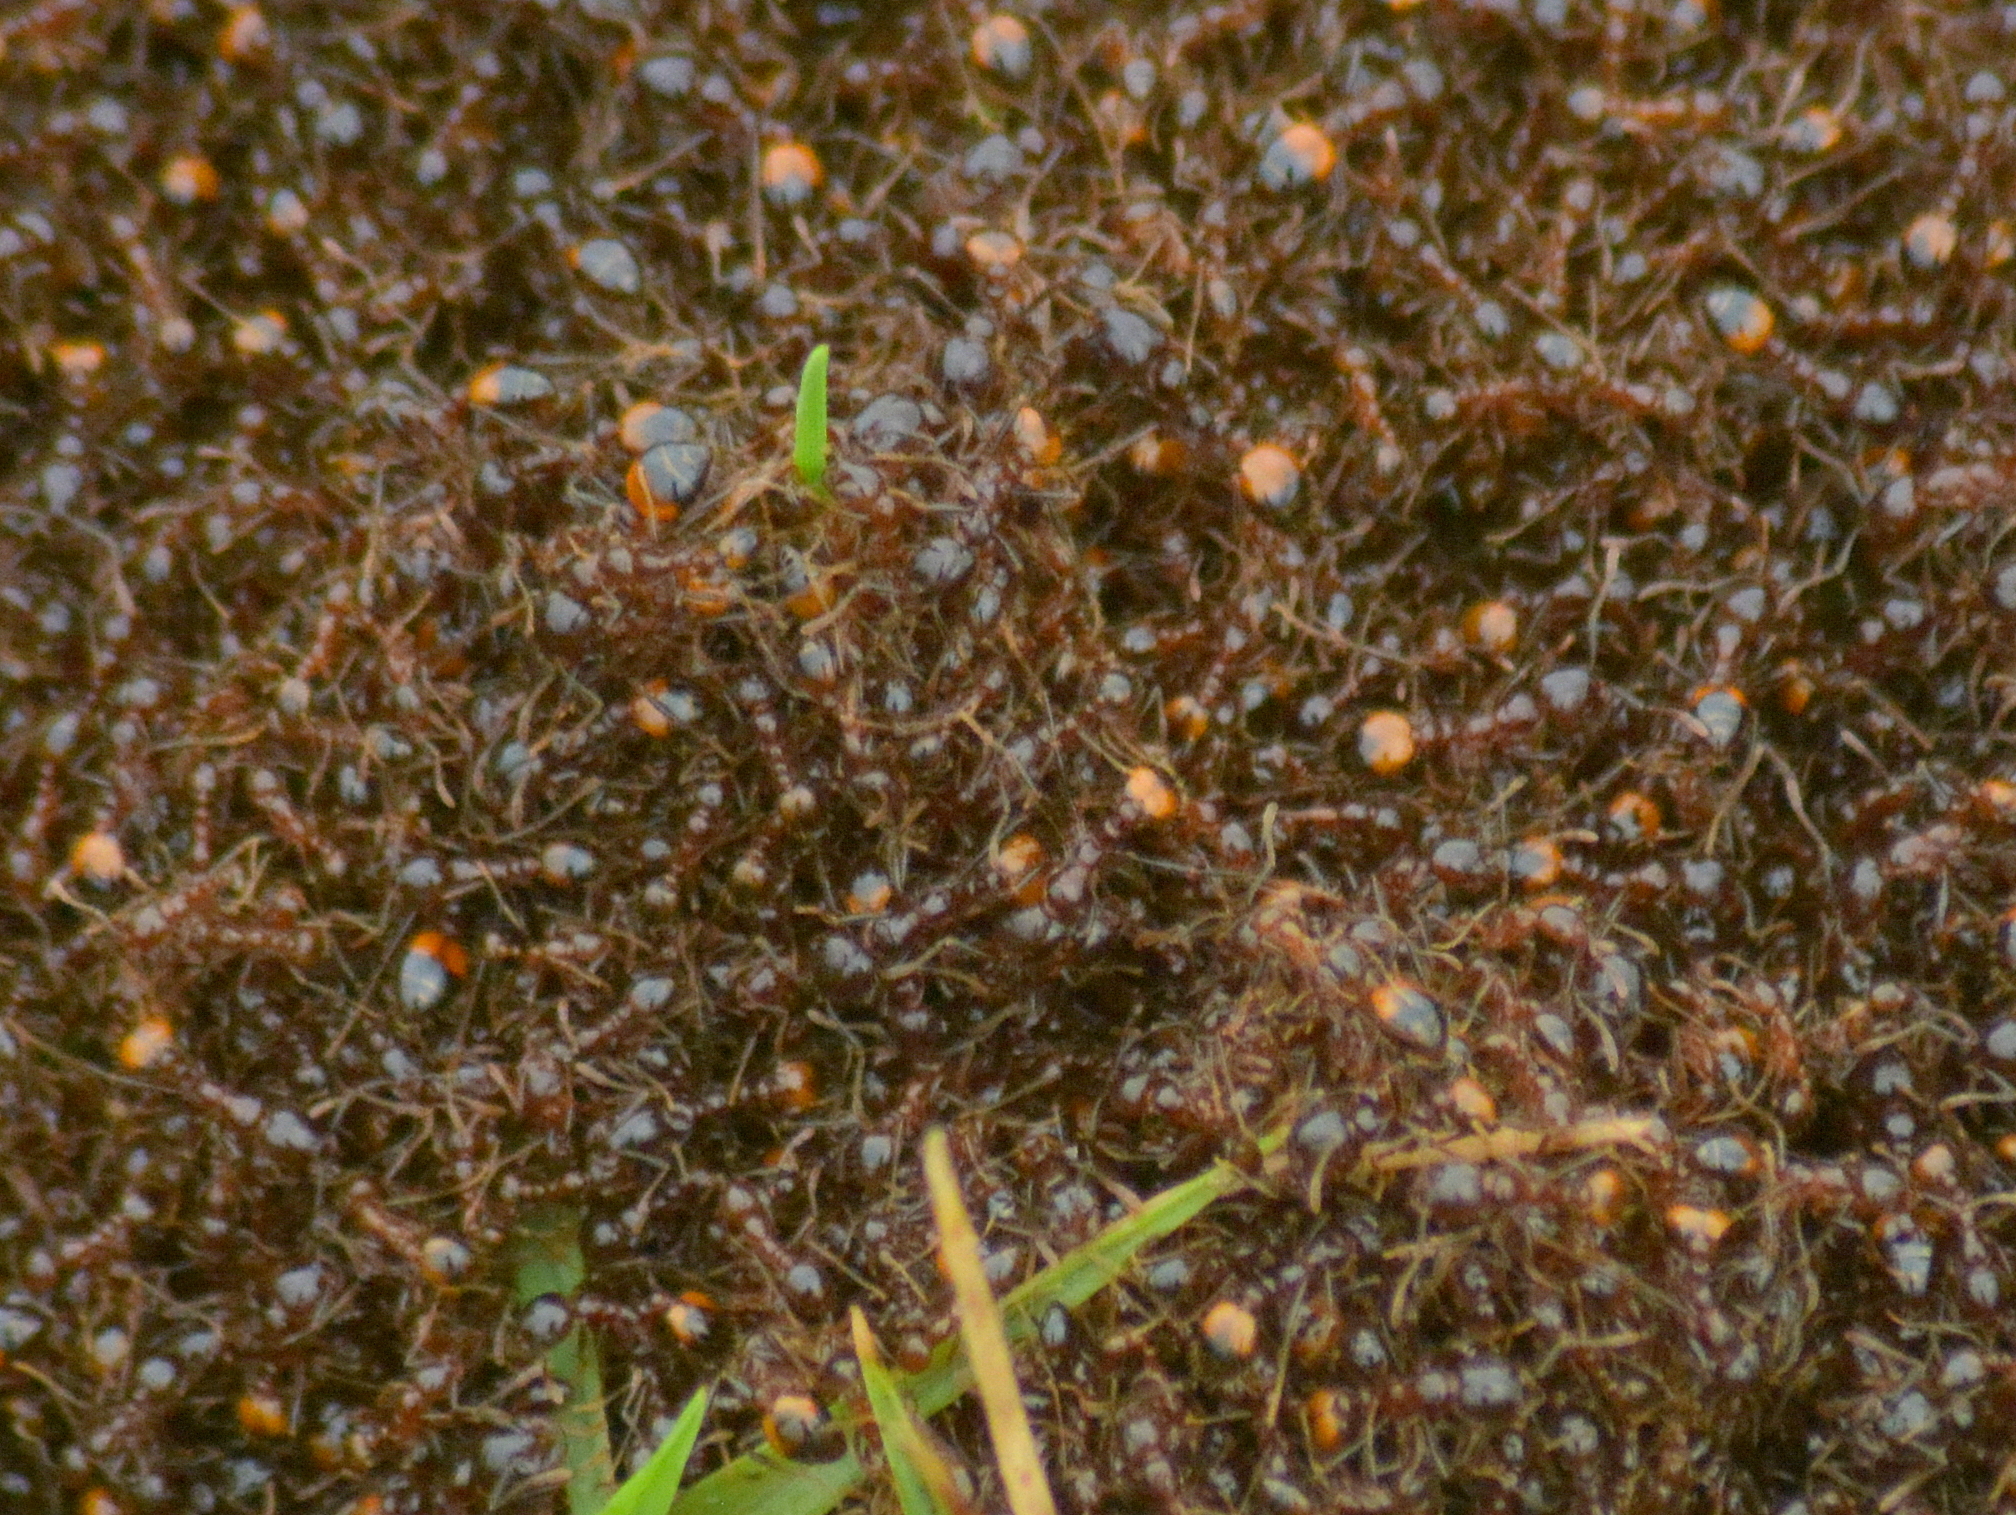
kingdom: Animalia
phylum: Arthropoda
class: Insecta
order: Hymenoptera
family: Formicidae
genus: Solenopsis
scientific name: Solenopsis richteri
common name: Black imported fire ant
